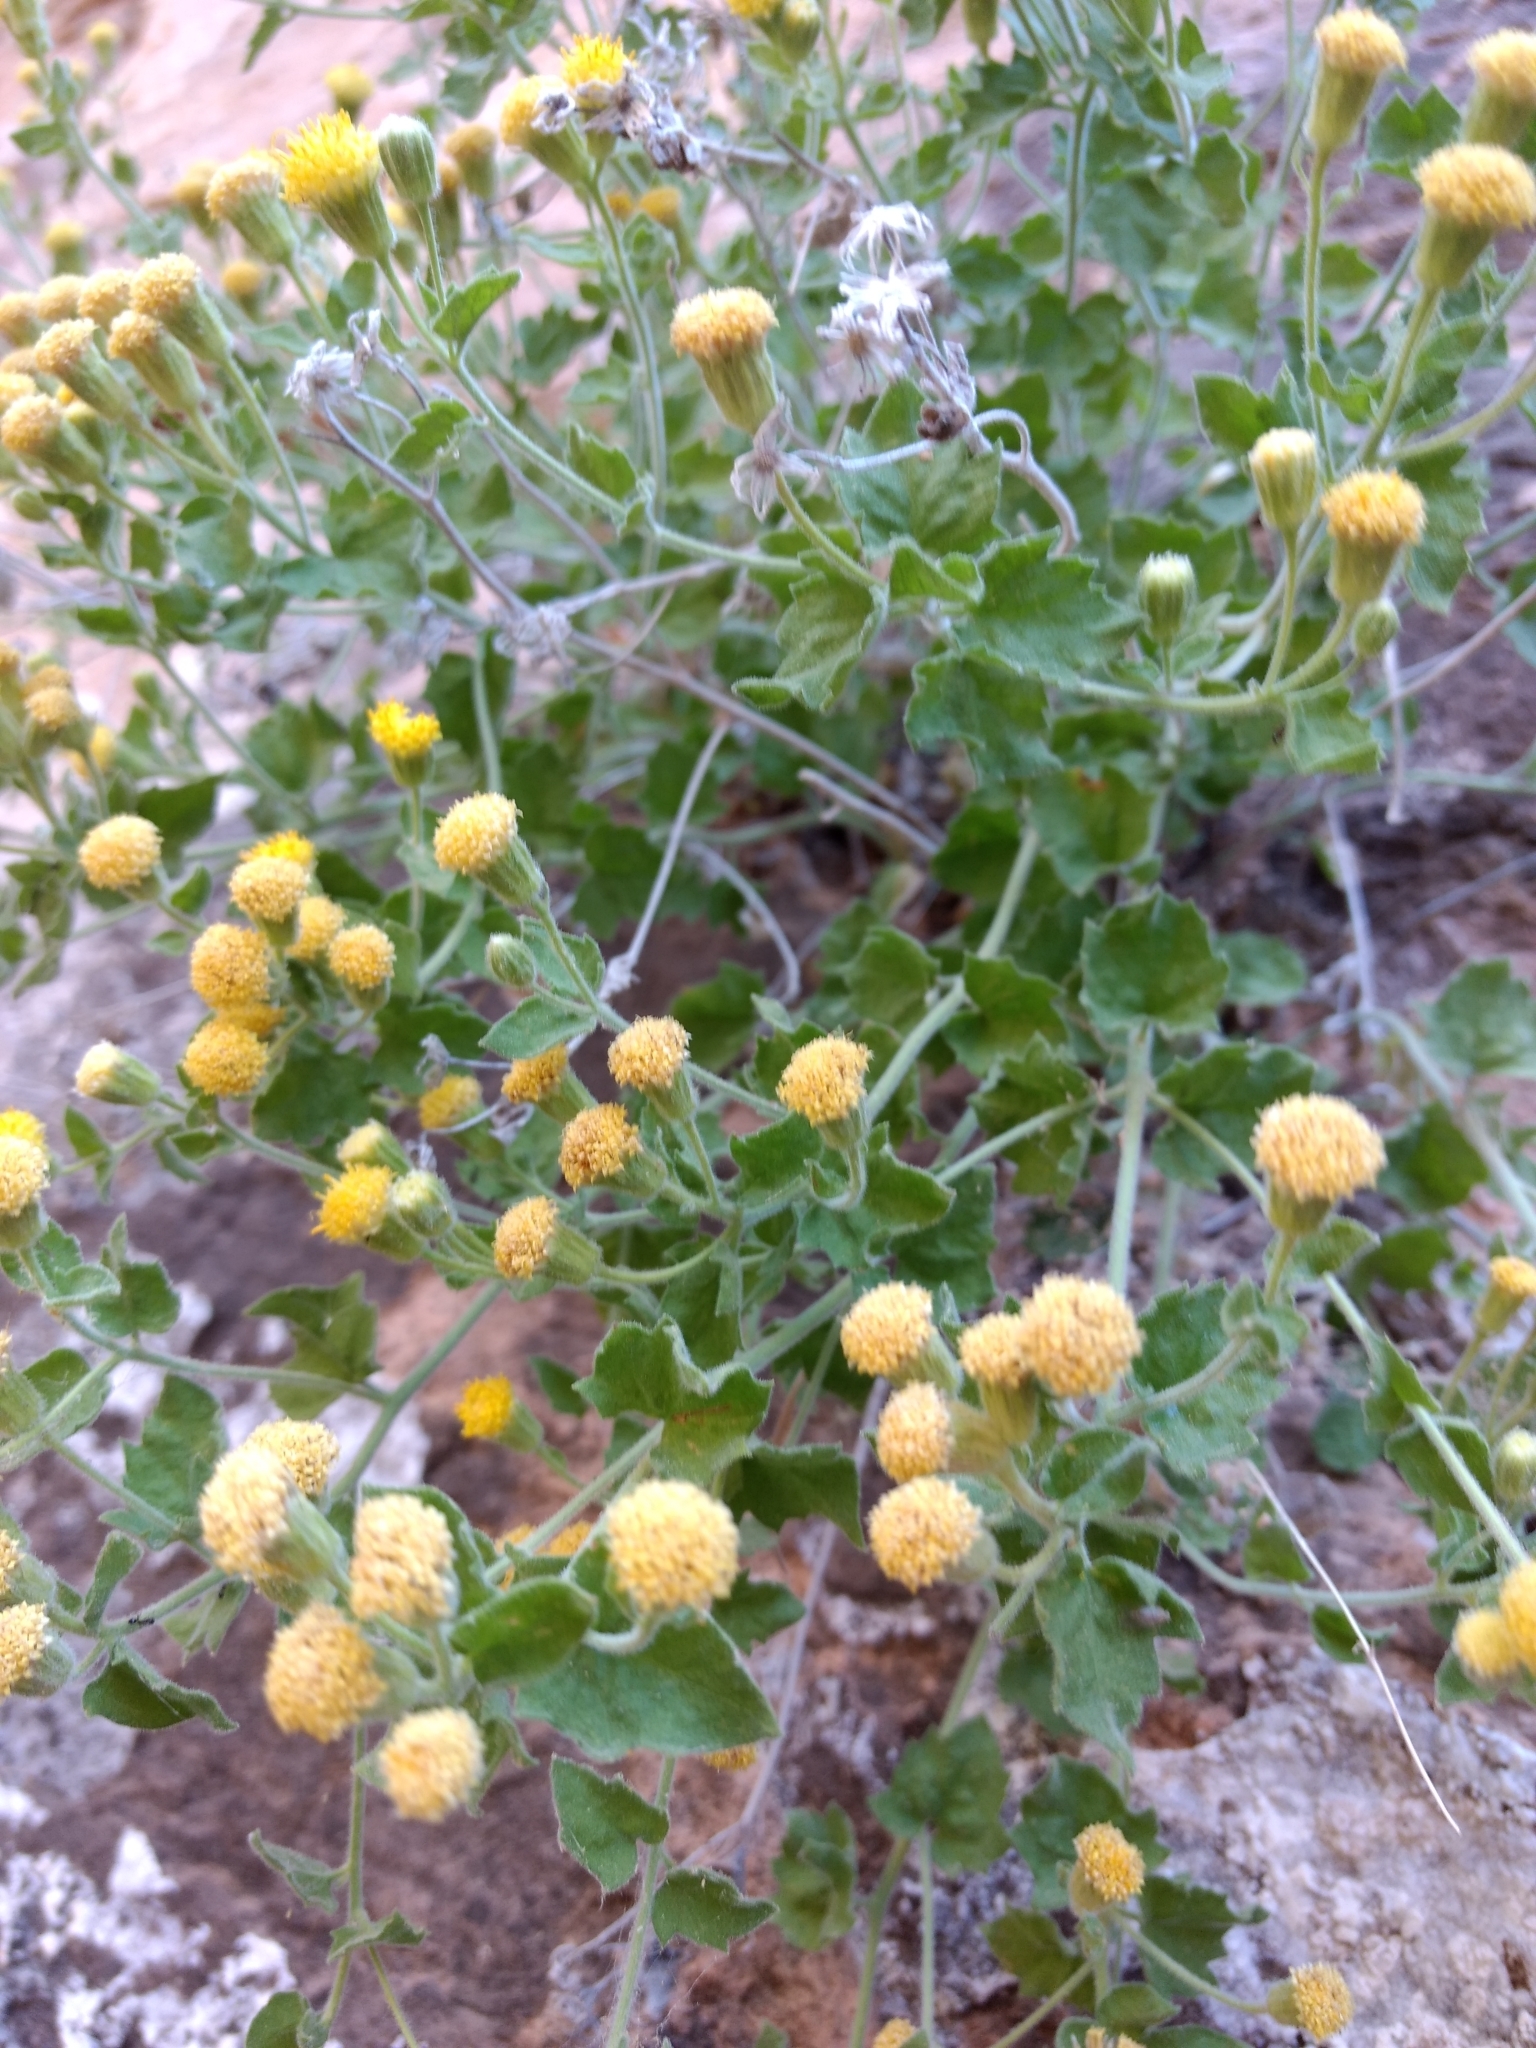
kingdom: Plantae
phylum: Tracheophyta
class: Magnoliopsida
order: Asterales
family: Asteraceae
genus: Laphamia
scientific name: Laphamia sanchezii
